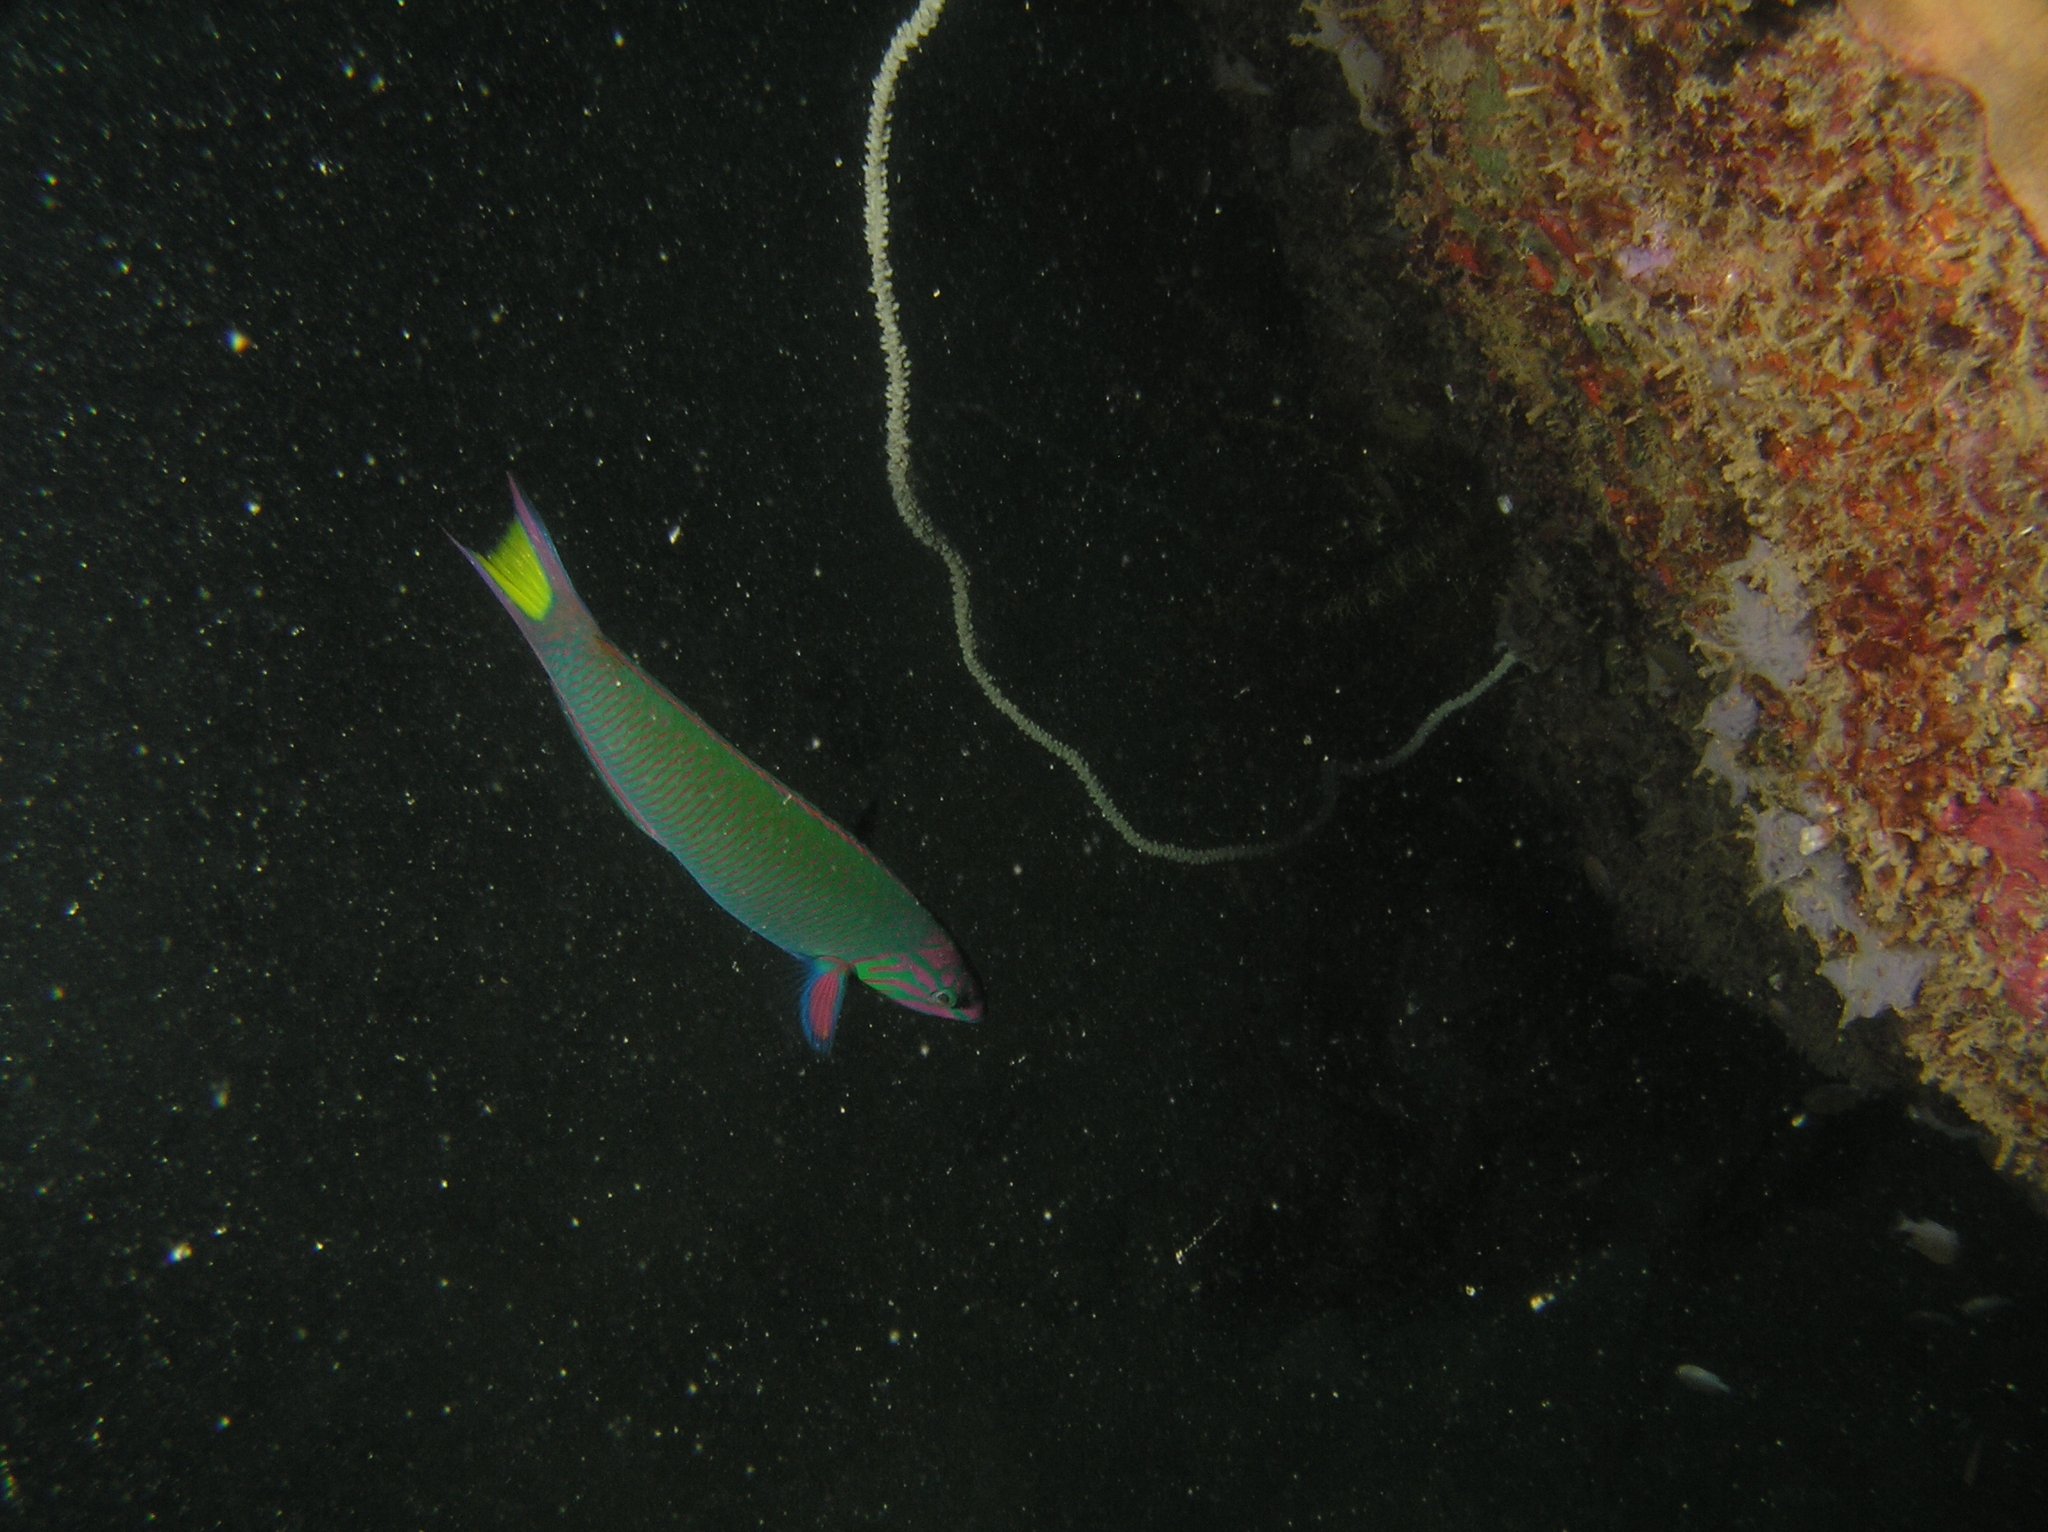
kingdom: Animalia
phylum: Chordata
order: Perciformes
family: Labridae
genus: Thalassoma
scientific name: Thalassoma lunare
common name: Blue wrasse
